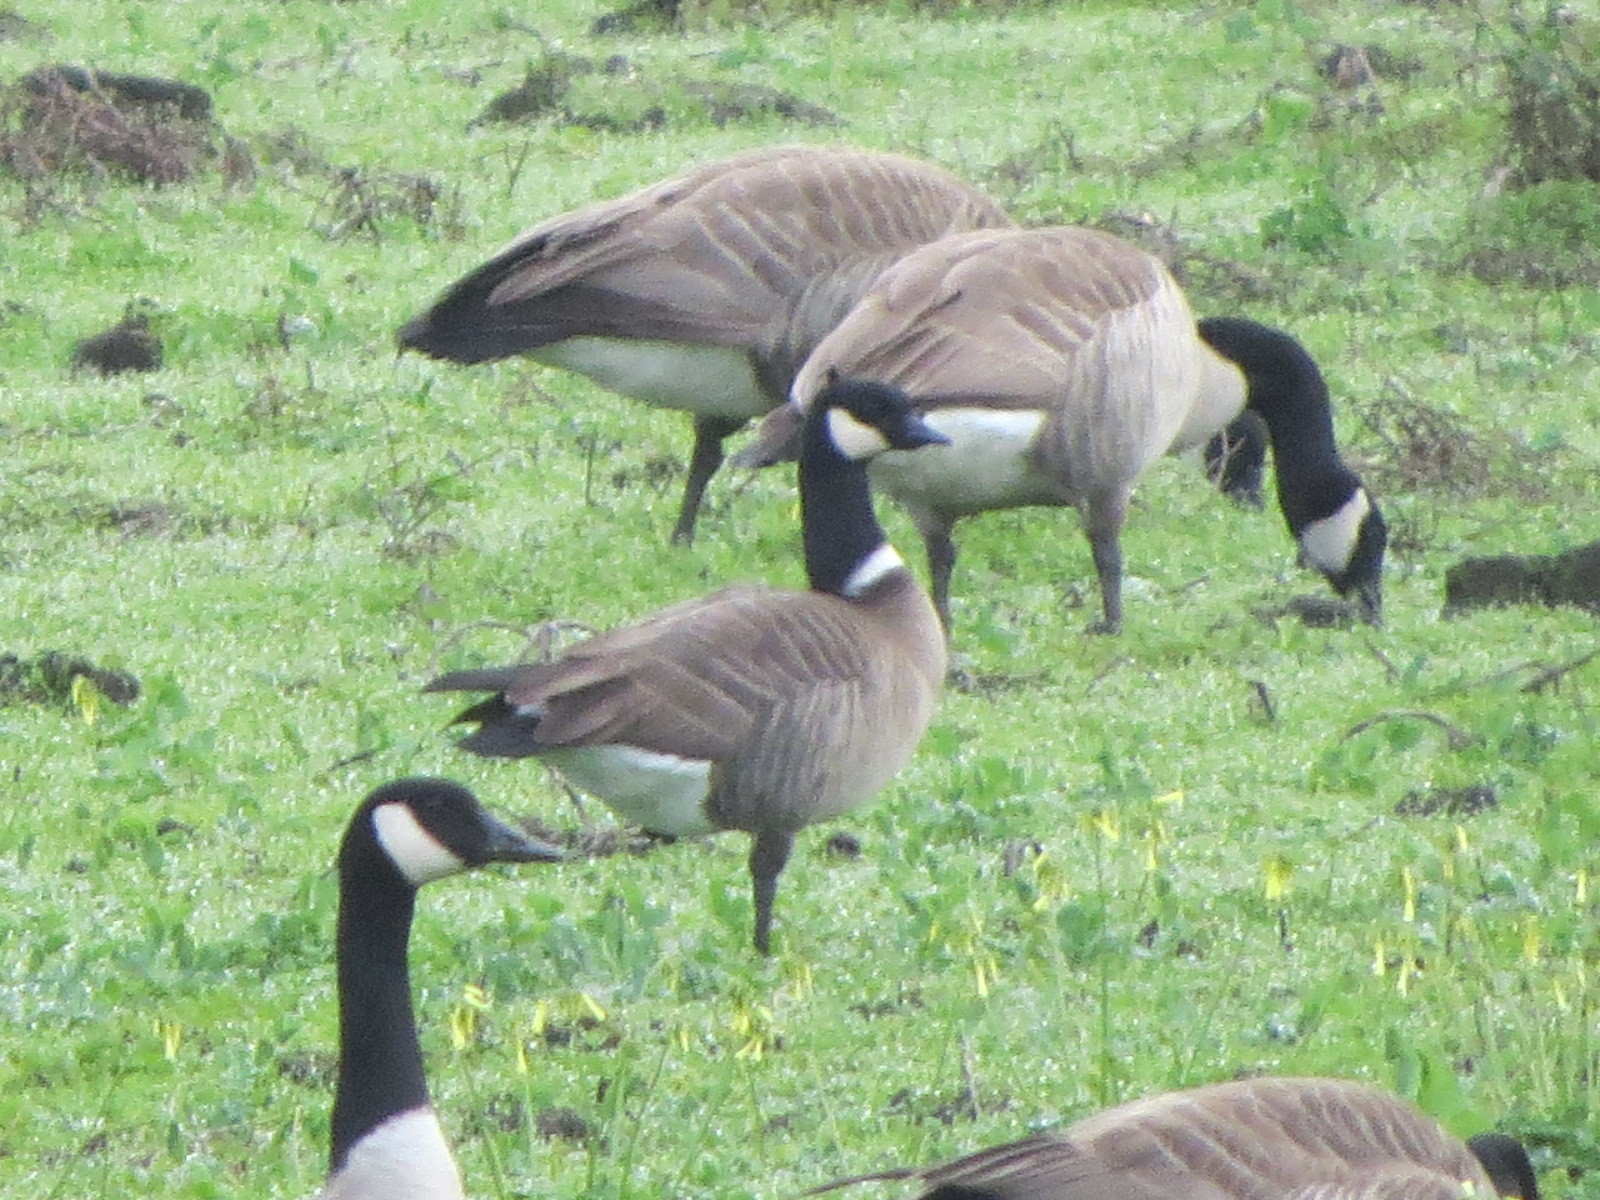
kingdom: Animalia
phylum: Chordata
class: Aves
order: Anseriformes
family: Anatidae
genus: Branta
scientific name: Branta hutchinsii
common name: Cackling goose
